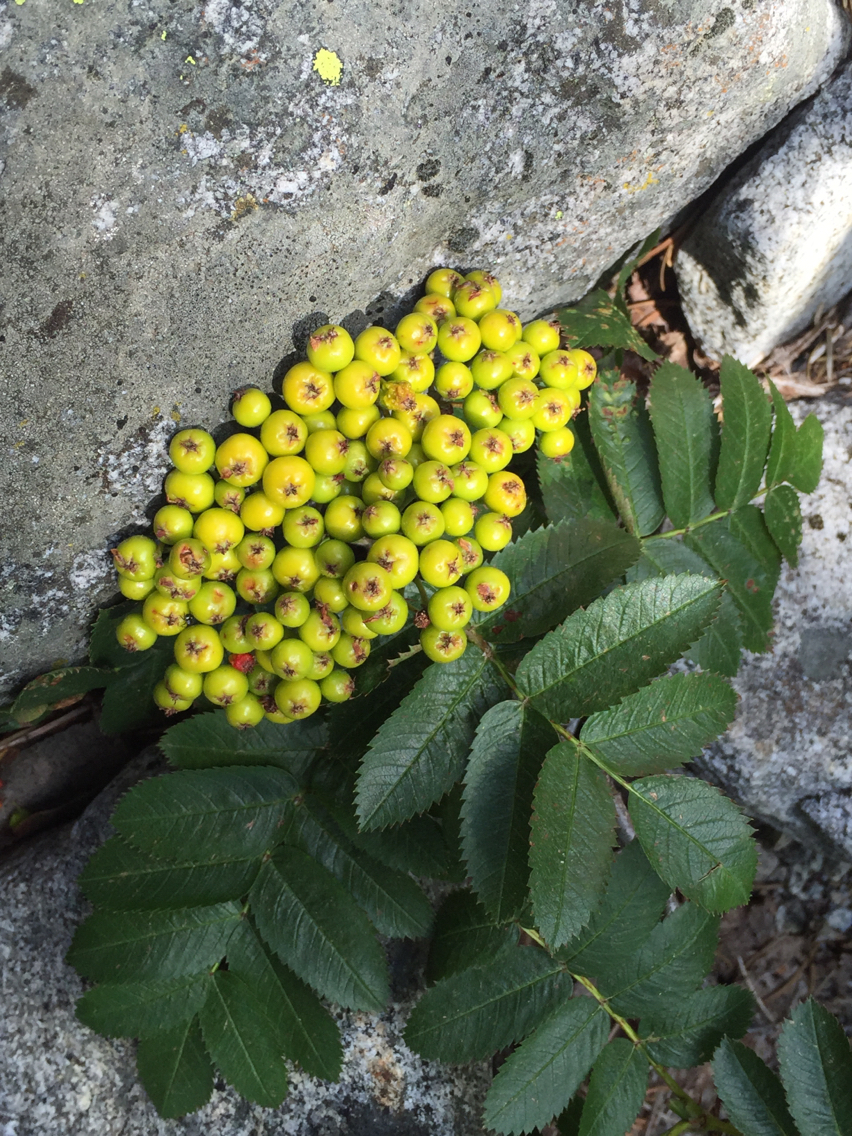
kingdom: Plantae
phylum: Tracheophyta
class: Magnoliopsida
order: Rosales
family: Rosaceae
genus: Sorbus
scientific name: Sorbus californica
